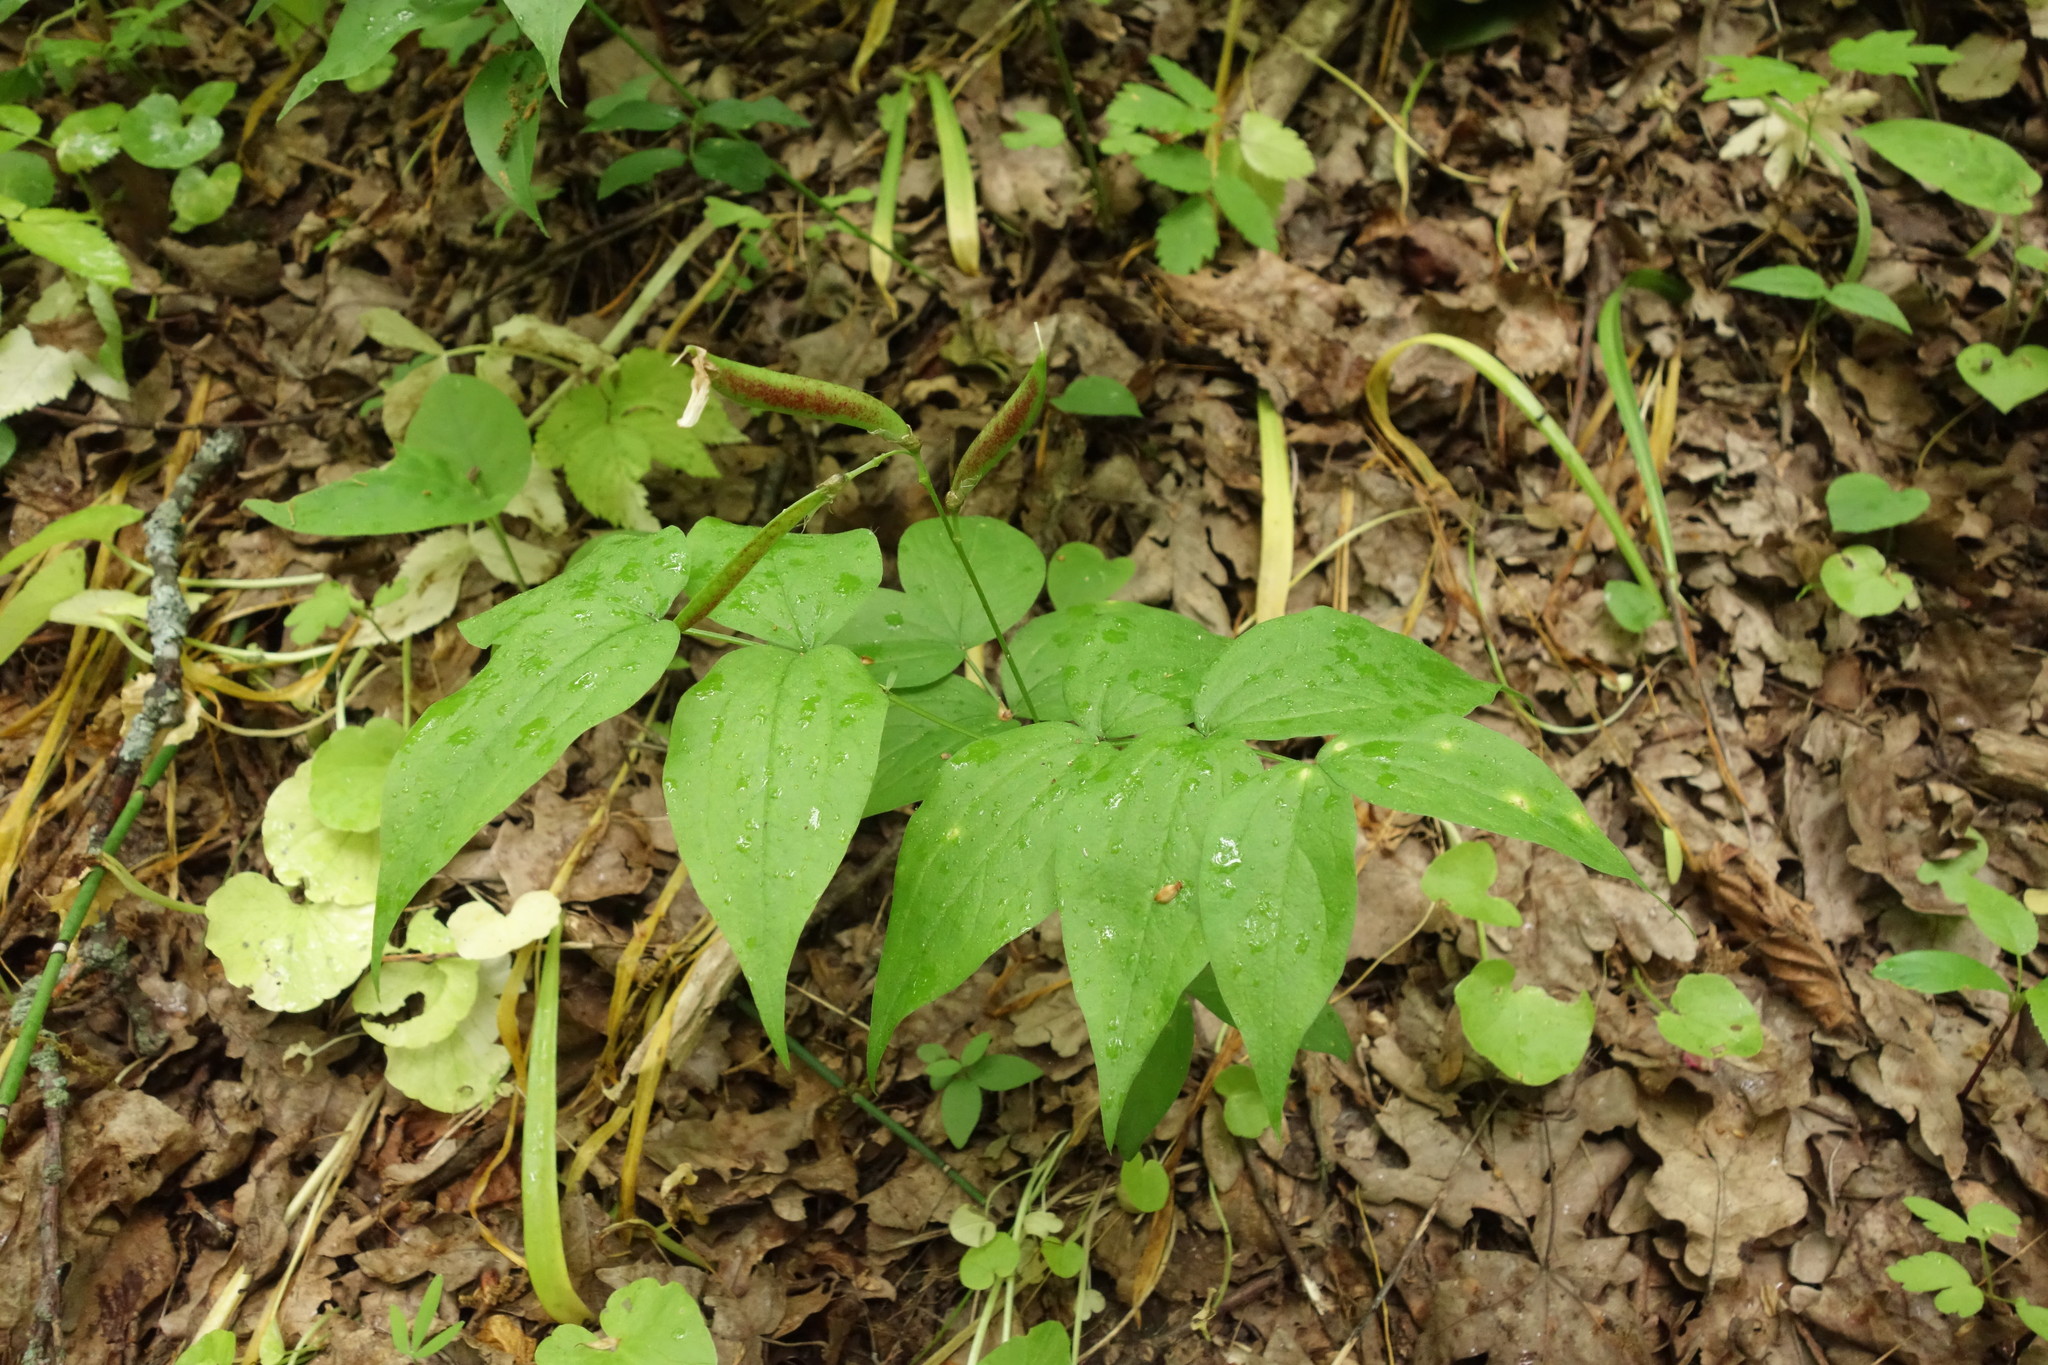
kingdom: Plantae
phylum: Tracheophyta
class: Magnoliopsida
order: Fabales
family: Fabaceae
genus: Lathyrus
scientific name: Lathyrus vernus
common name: Spring pea
